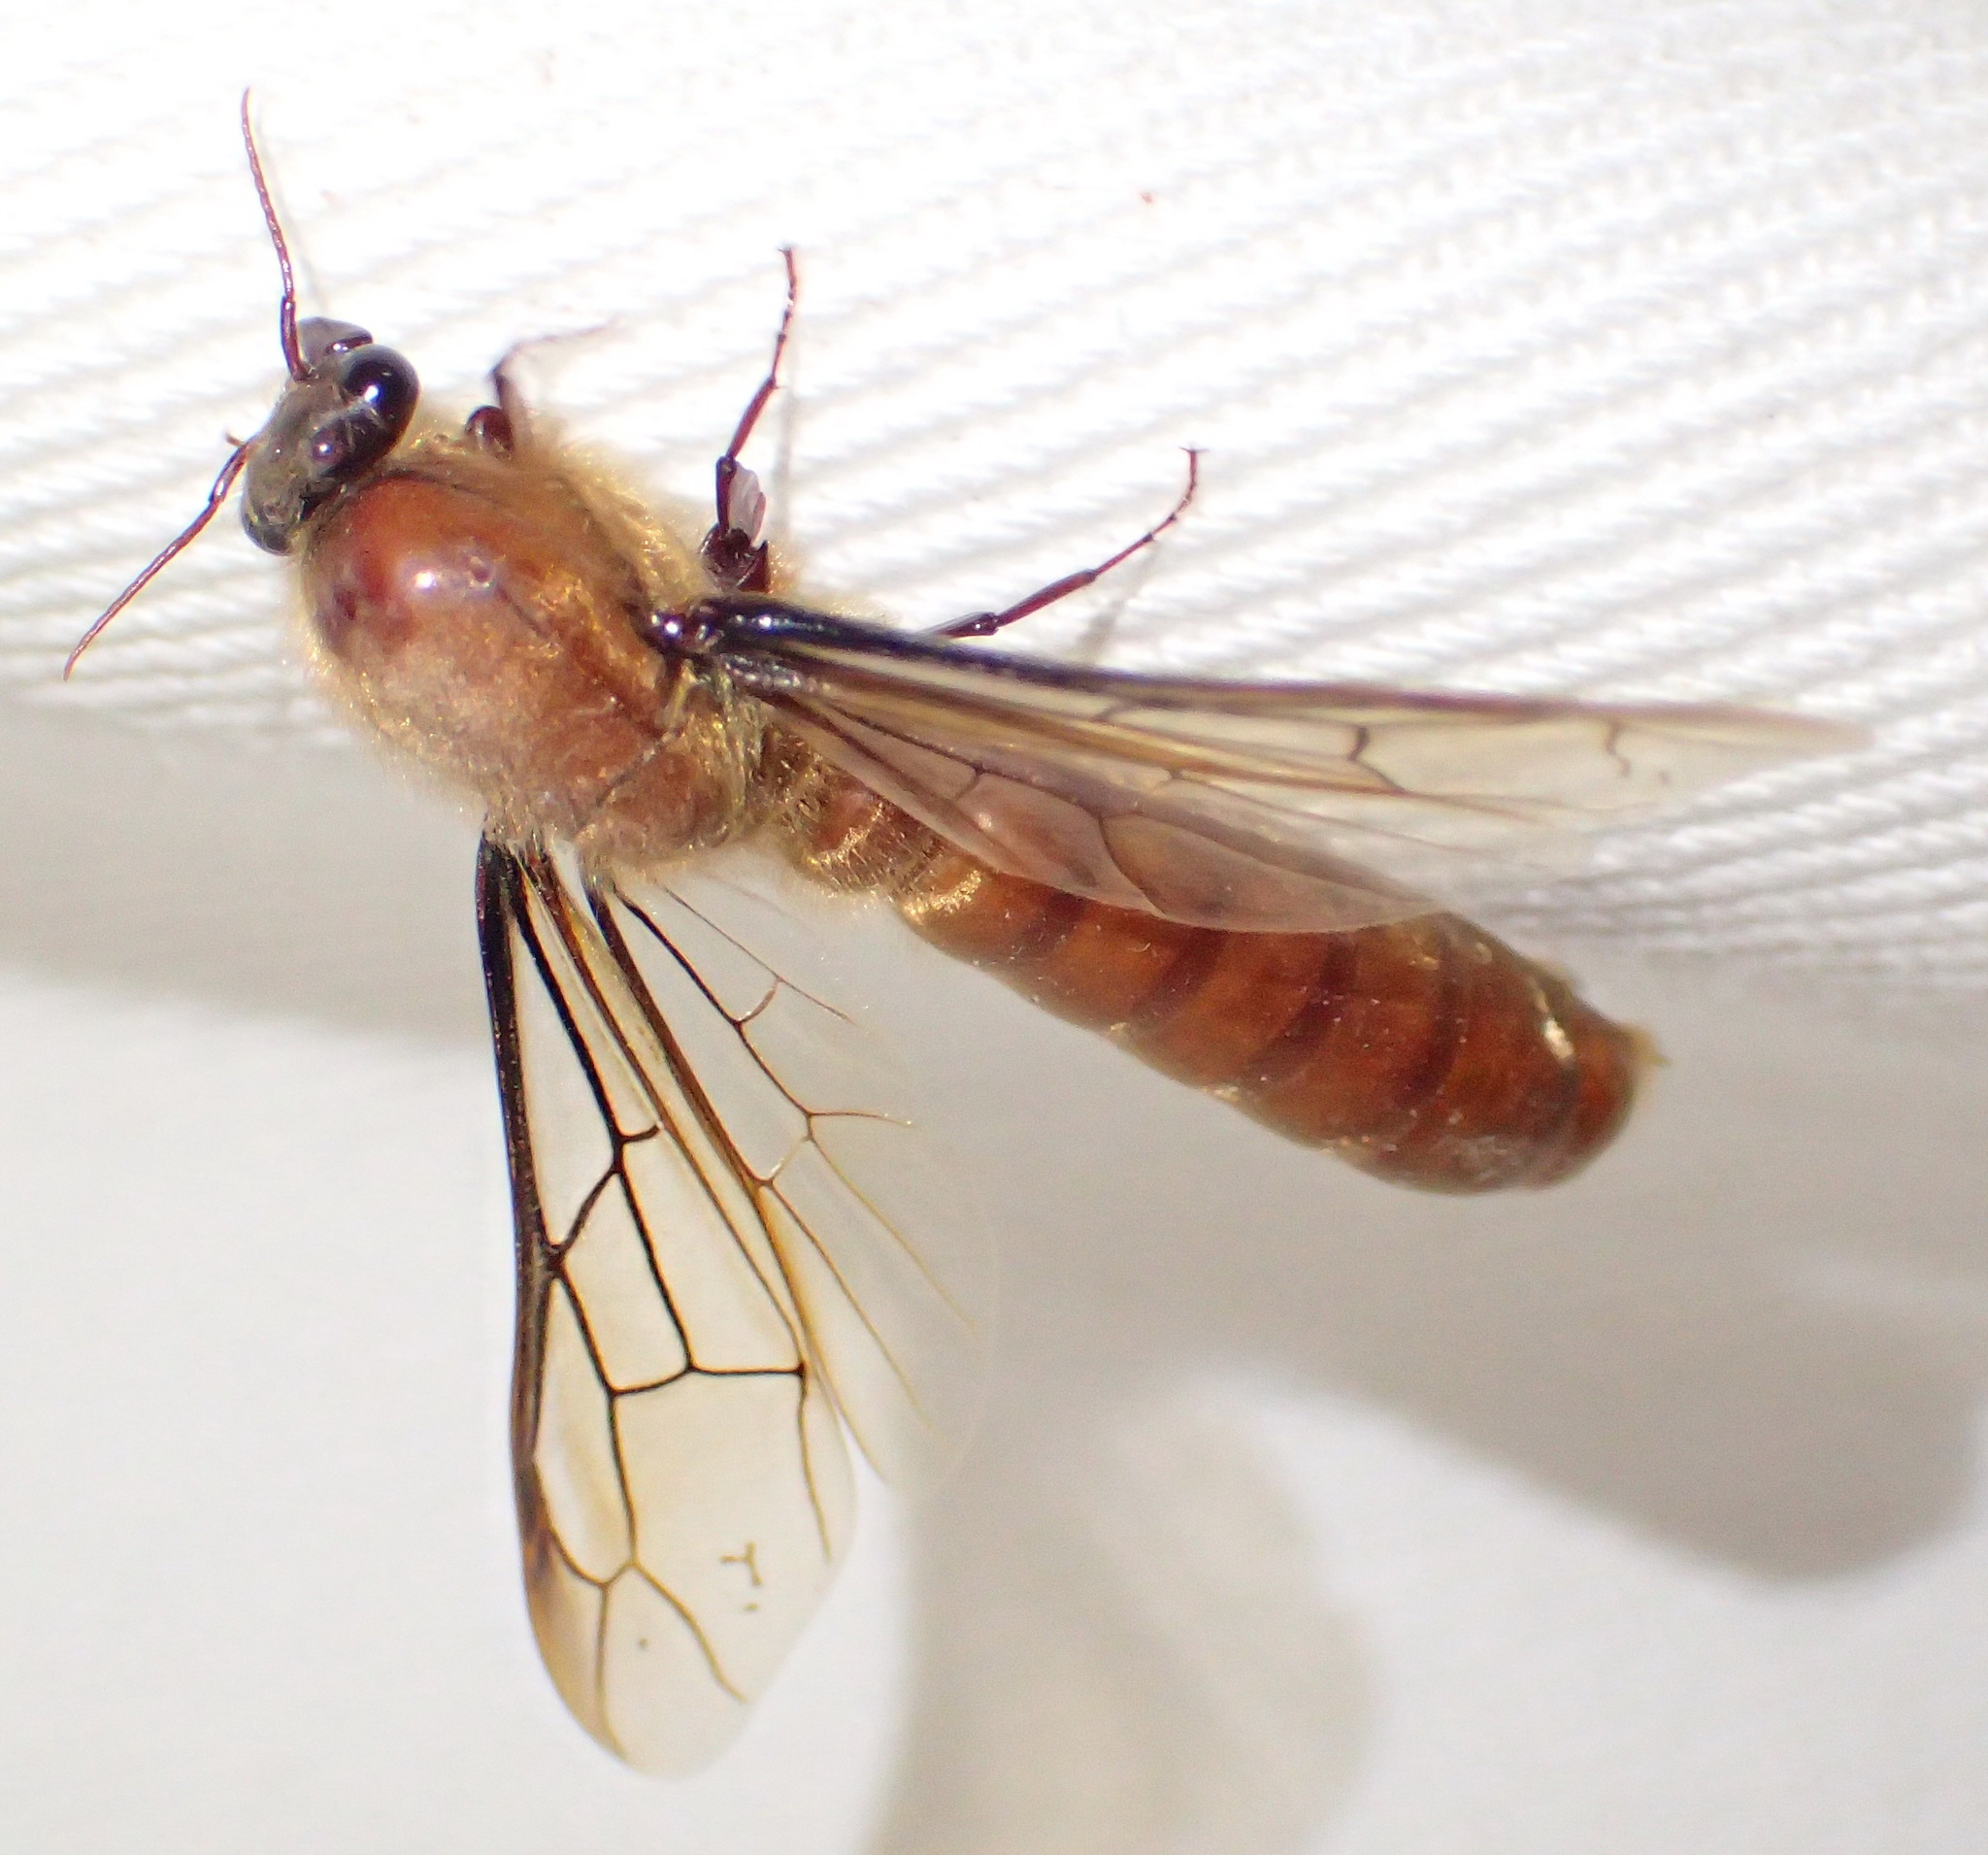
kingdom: Animalia
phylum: Arthropoda
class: Insecta
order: Hymenoptera
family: Formicidae
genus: Dorylus
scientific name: Dorylus helvolus
